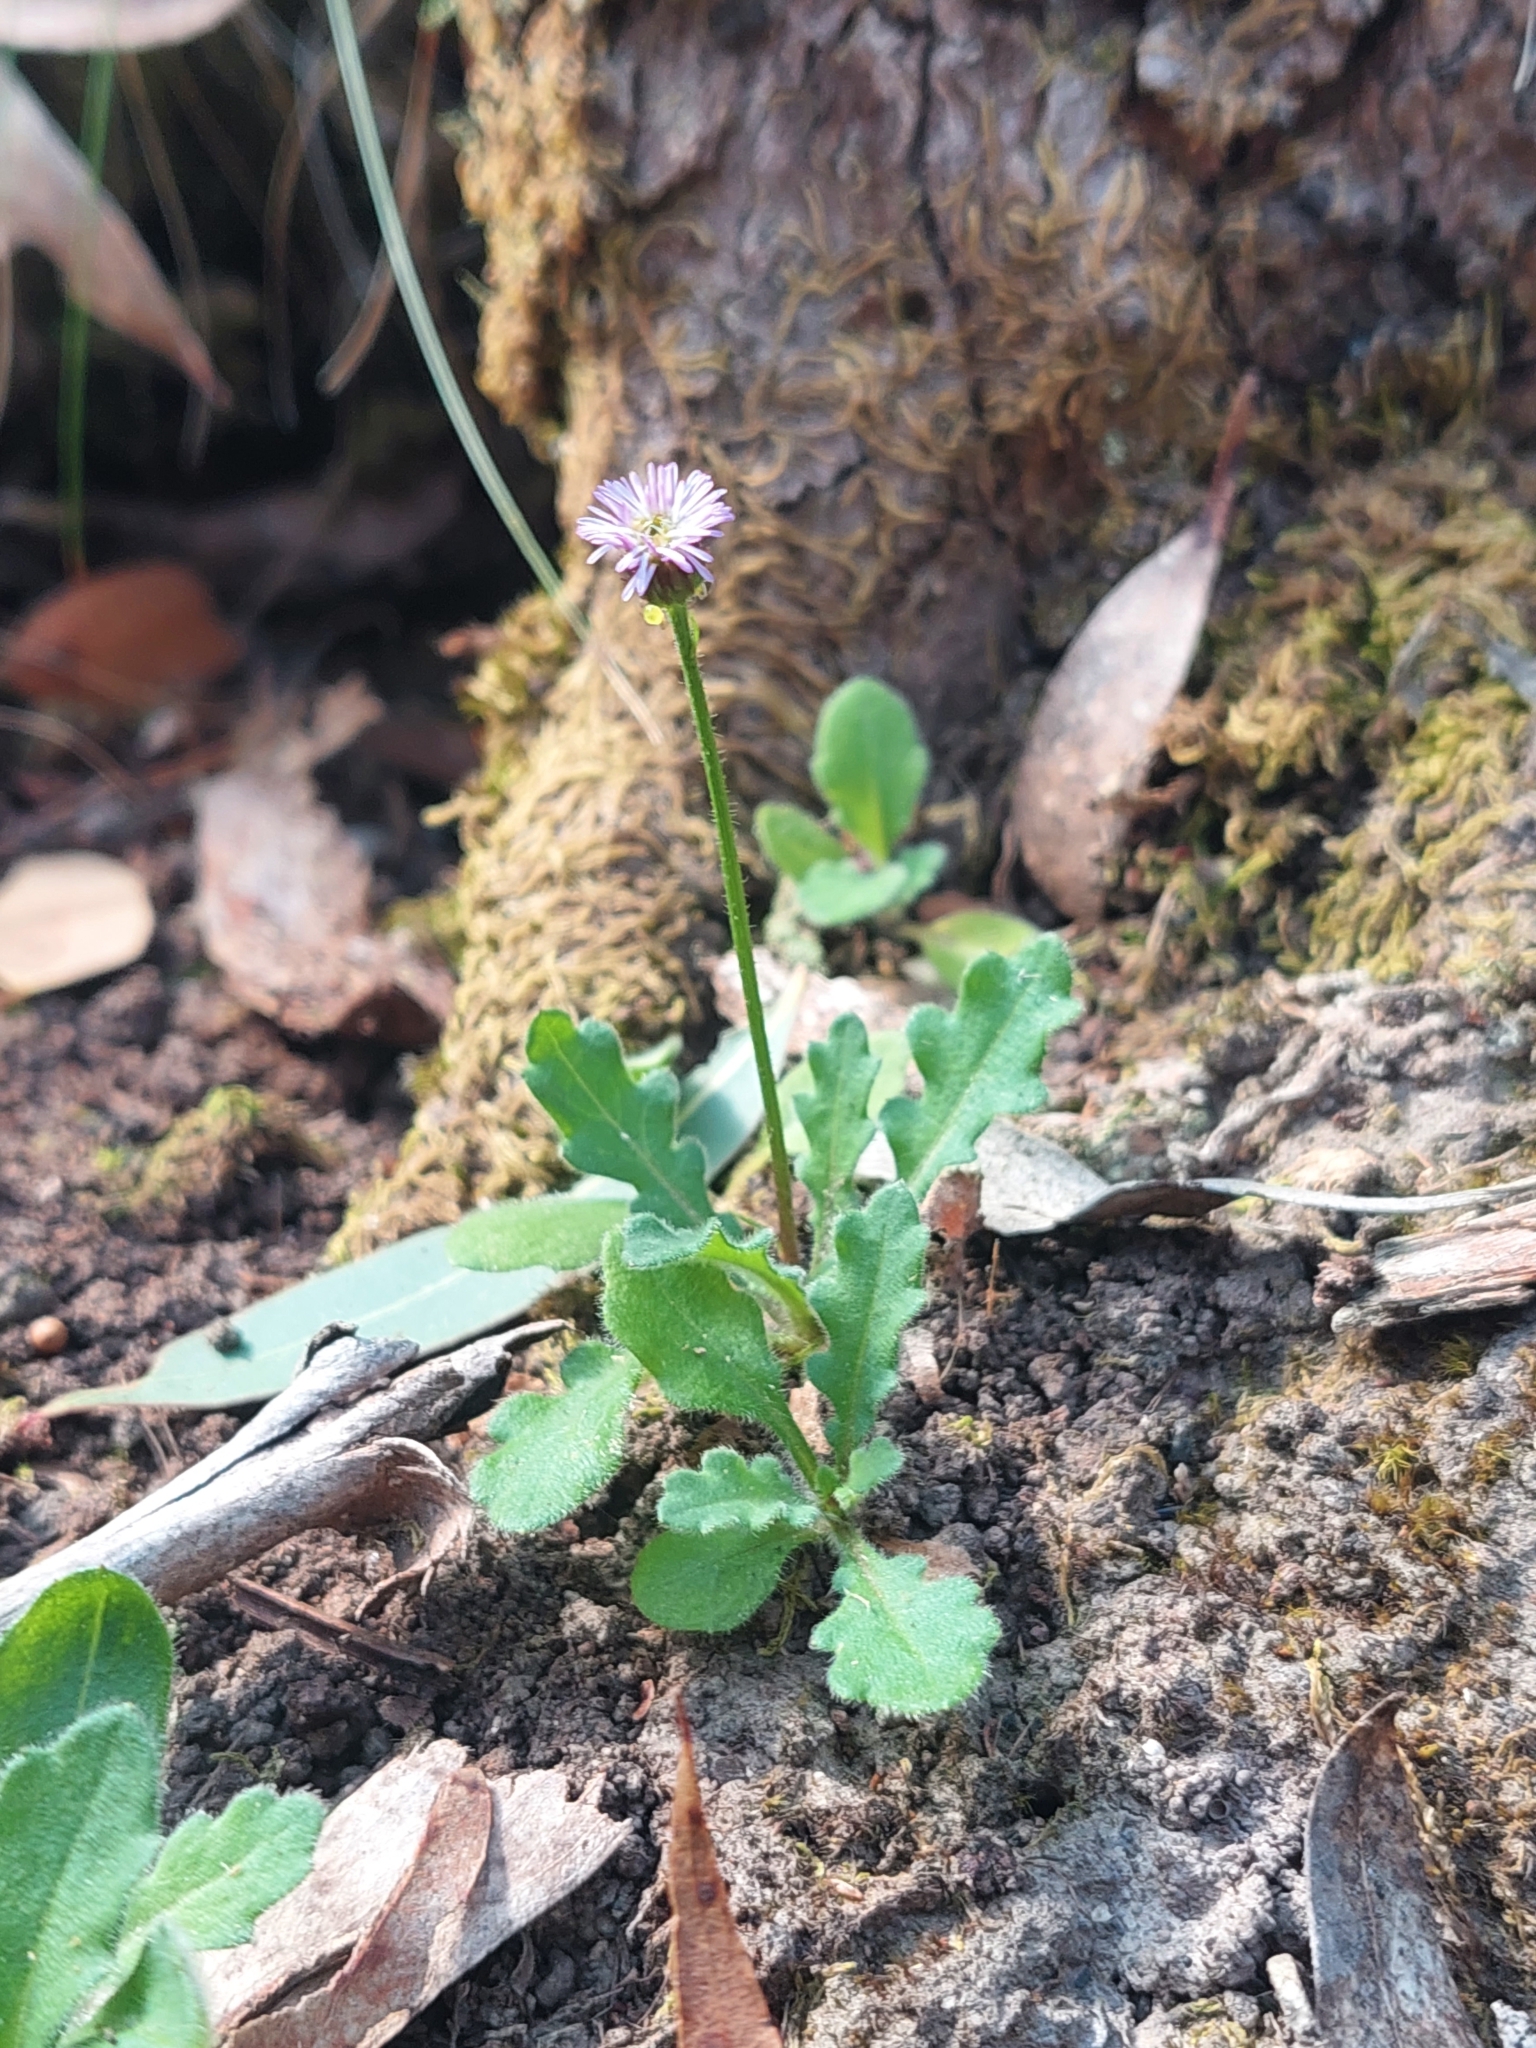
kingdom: Plantae
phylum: Tracheophyta
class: Magnoliopsida
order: Asterales
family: Asteraceae
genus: Lagenophora
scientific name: Lagenophora stipitata
